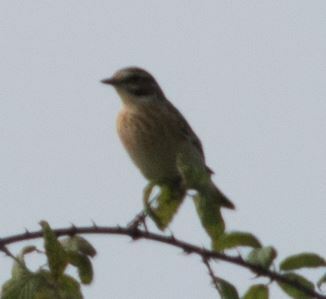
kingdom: Animalia
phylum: Chordata
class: Aves
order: Passeriformes
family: Muscicapidae
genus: Saxicola
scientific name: Saxicola rubetra
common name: Whinchat
